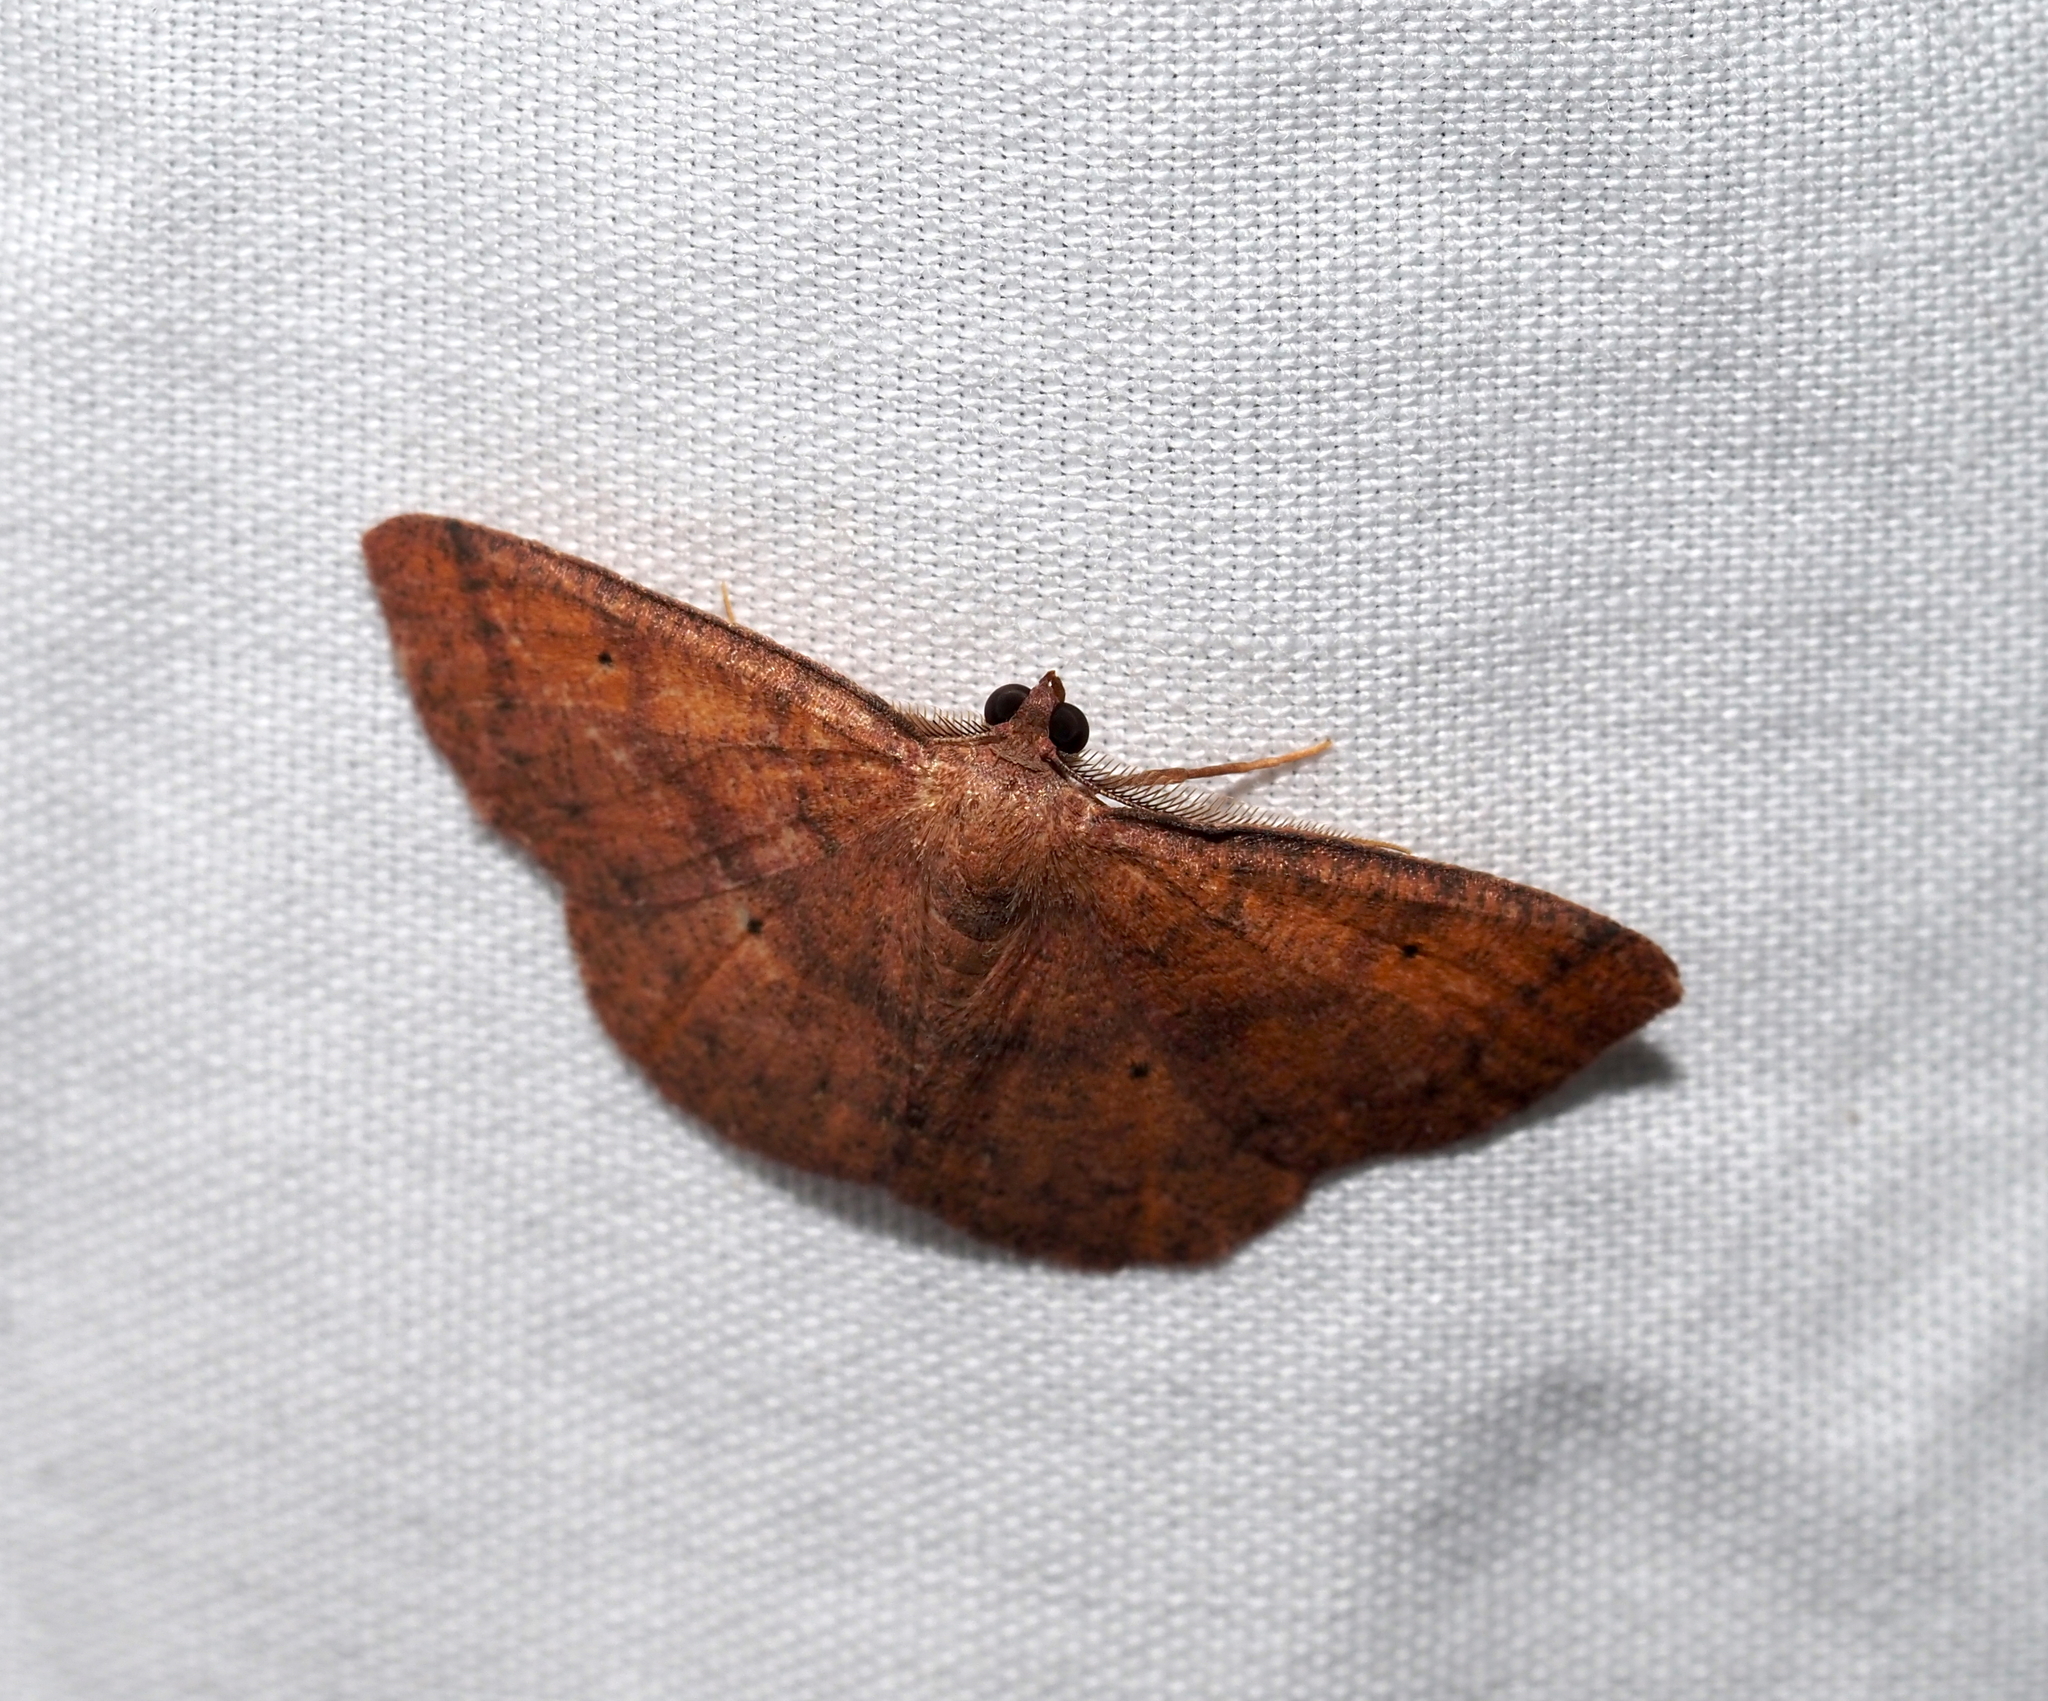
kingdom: Animalia
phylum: Arthropoda
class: Insecta
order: Lepidoptera
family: Geometridae
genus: Ilexia
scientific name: Ilexia intractata
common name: Black-dotted ruddy moth
